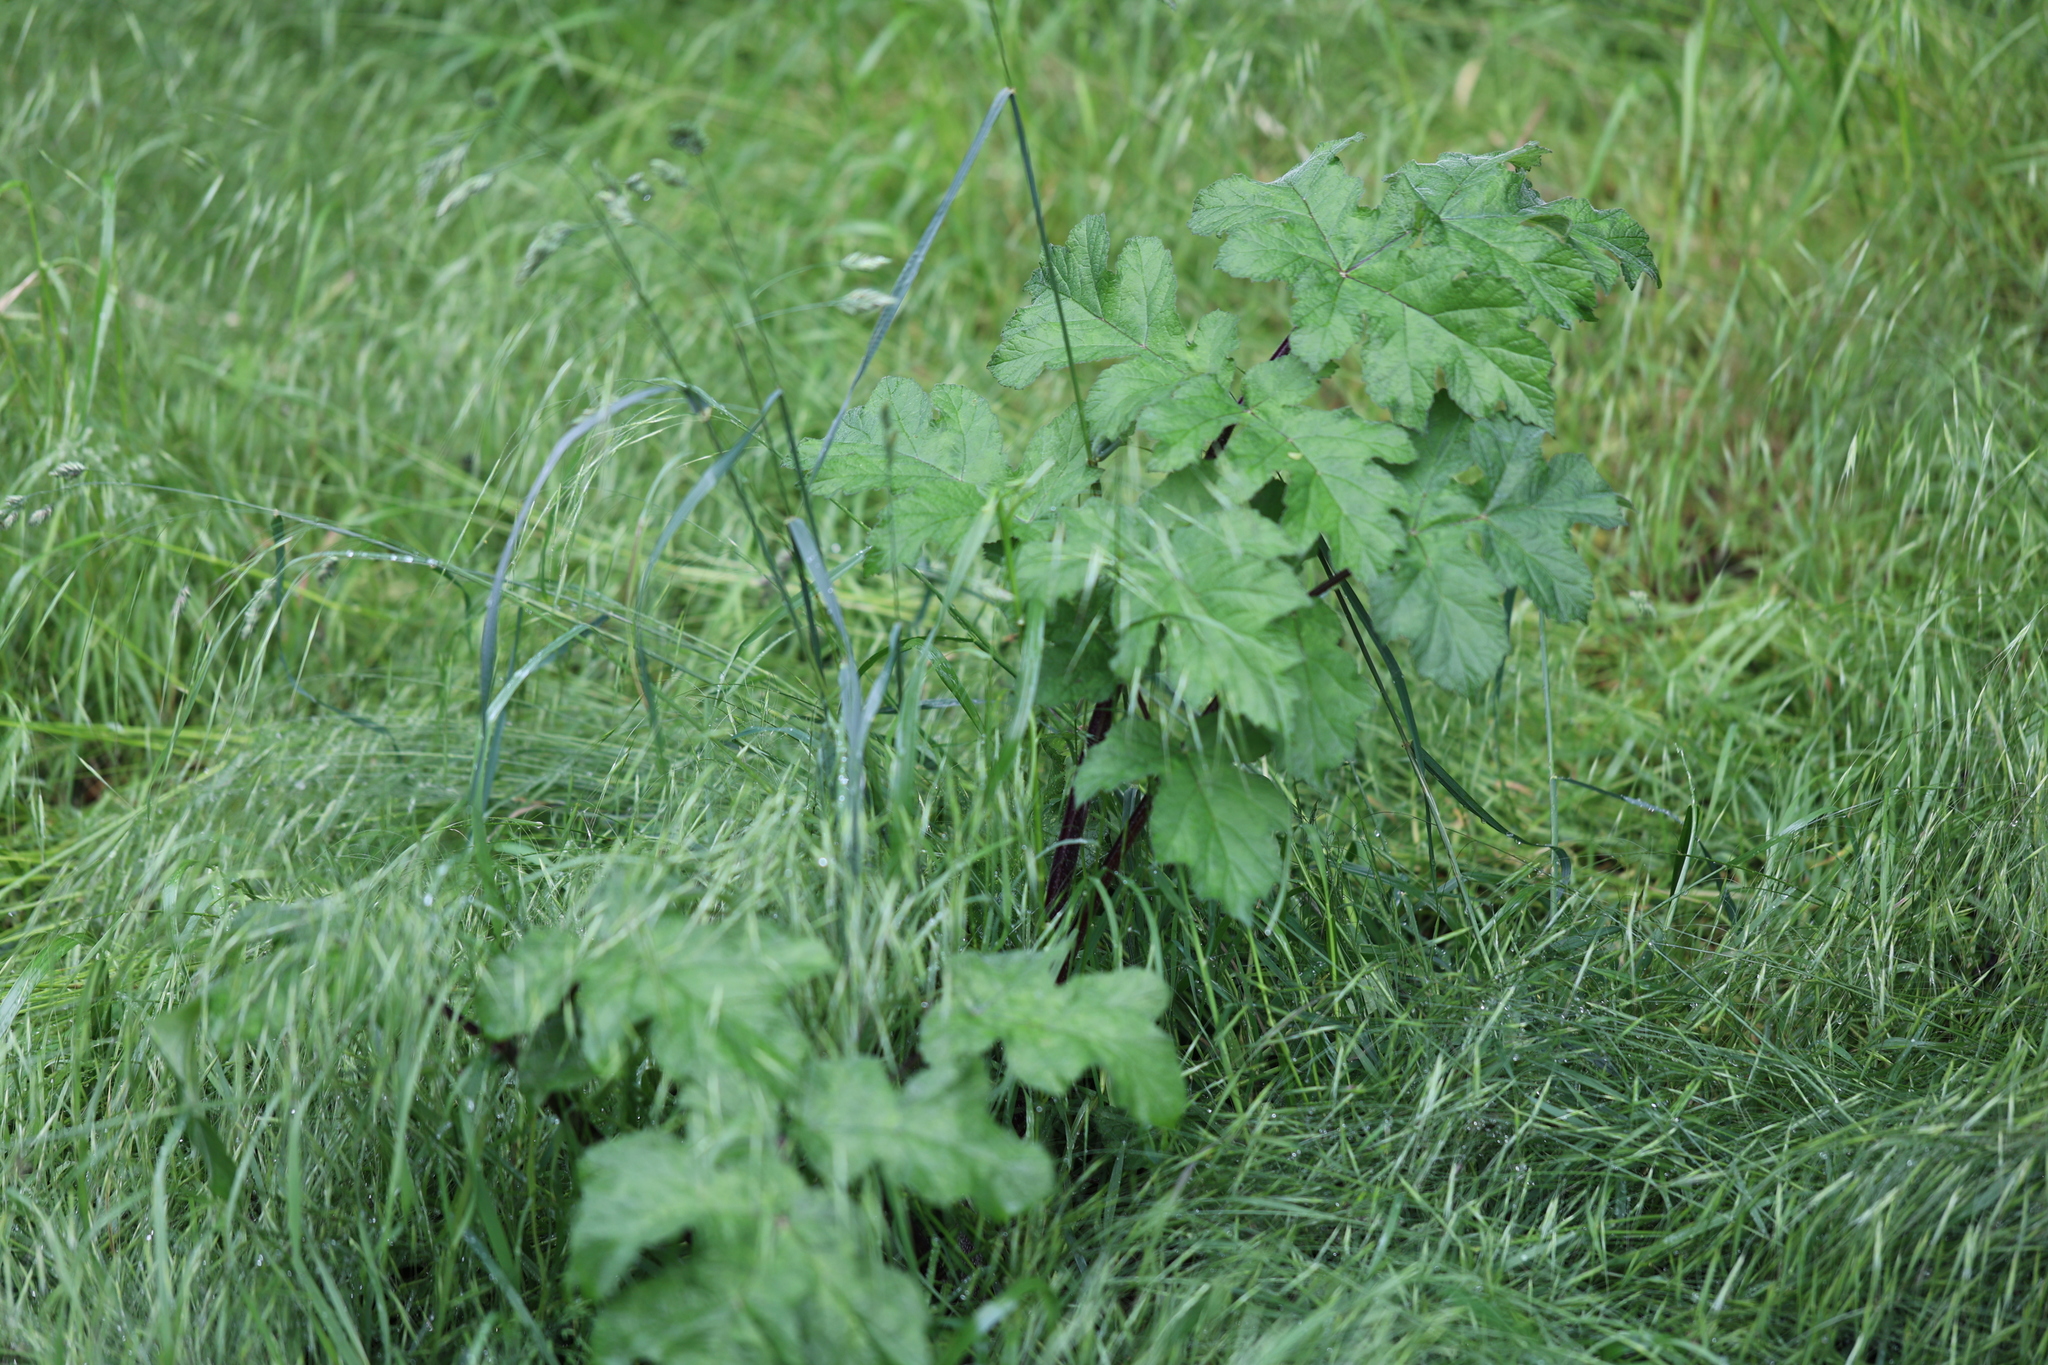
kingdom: Plantae
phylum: Tracheophyta
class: Magnoliopsida
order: Apiales
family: Apiaceae
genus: Heracleum
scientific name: Heracleum sphondylium
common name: Hogweed
